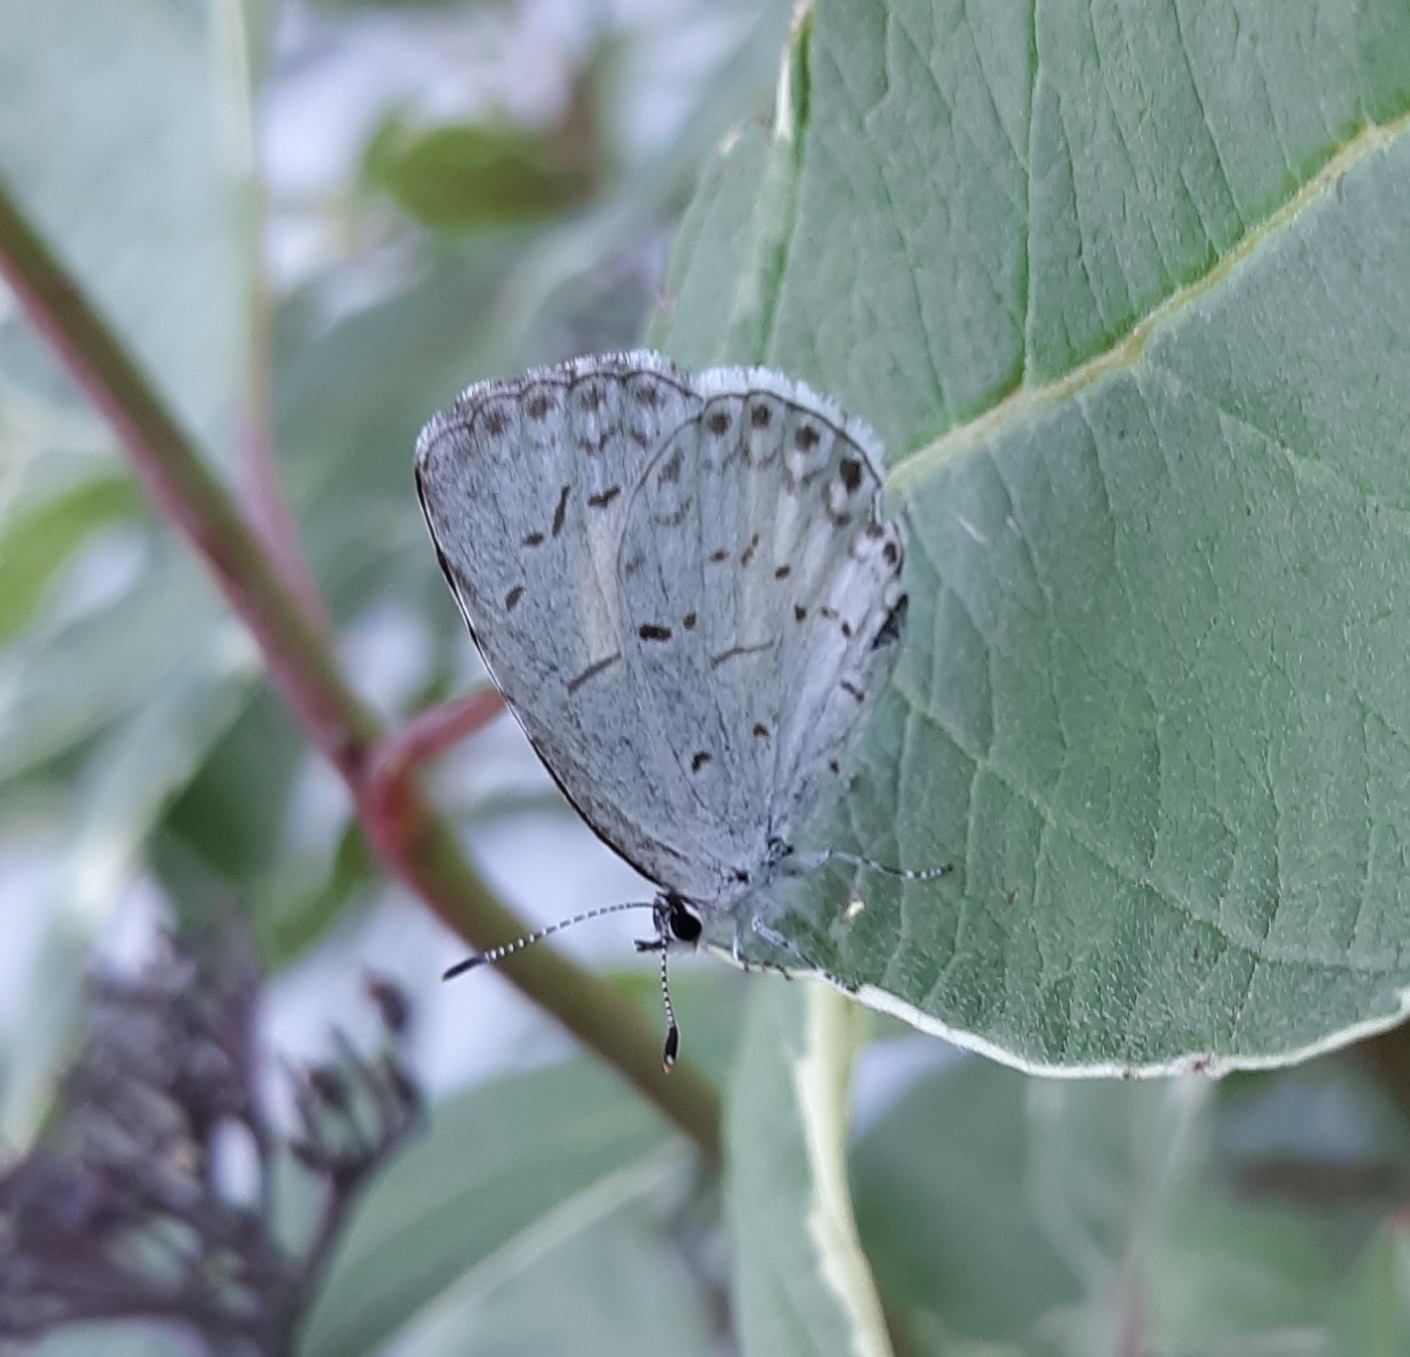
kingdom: Animalia
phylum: Arthropoda
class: Insecta
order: Lepidoptera
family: Lycaenidae
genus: Cyaniris
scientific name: Cyaniris neglecta
